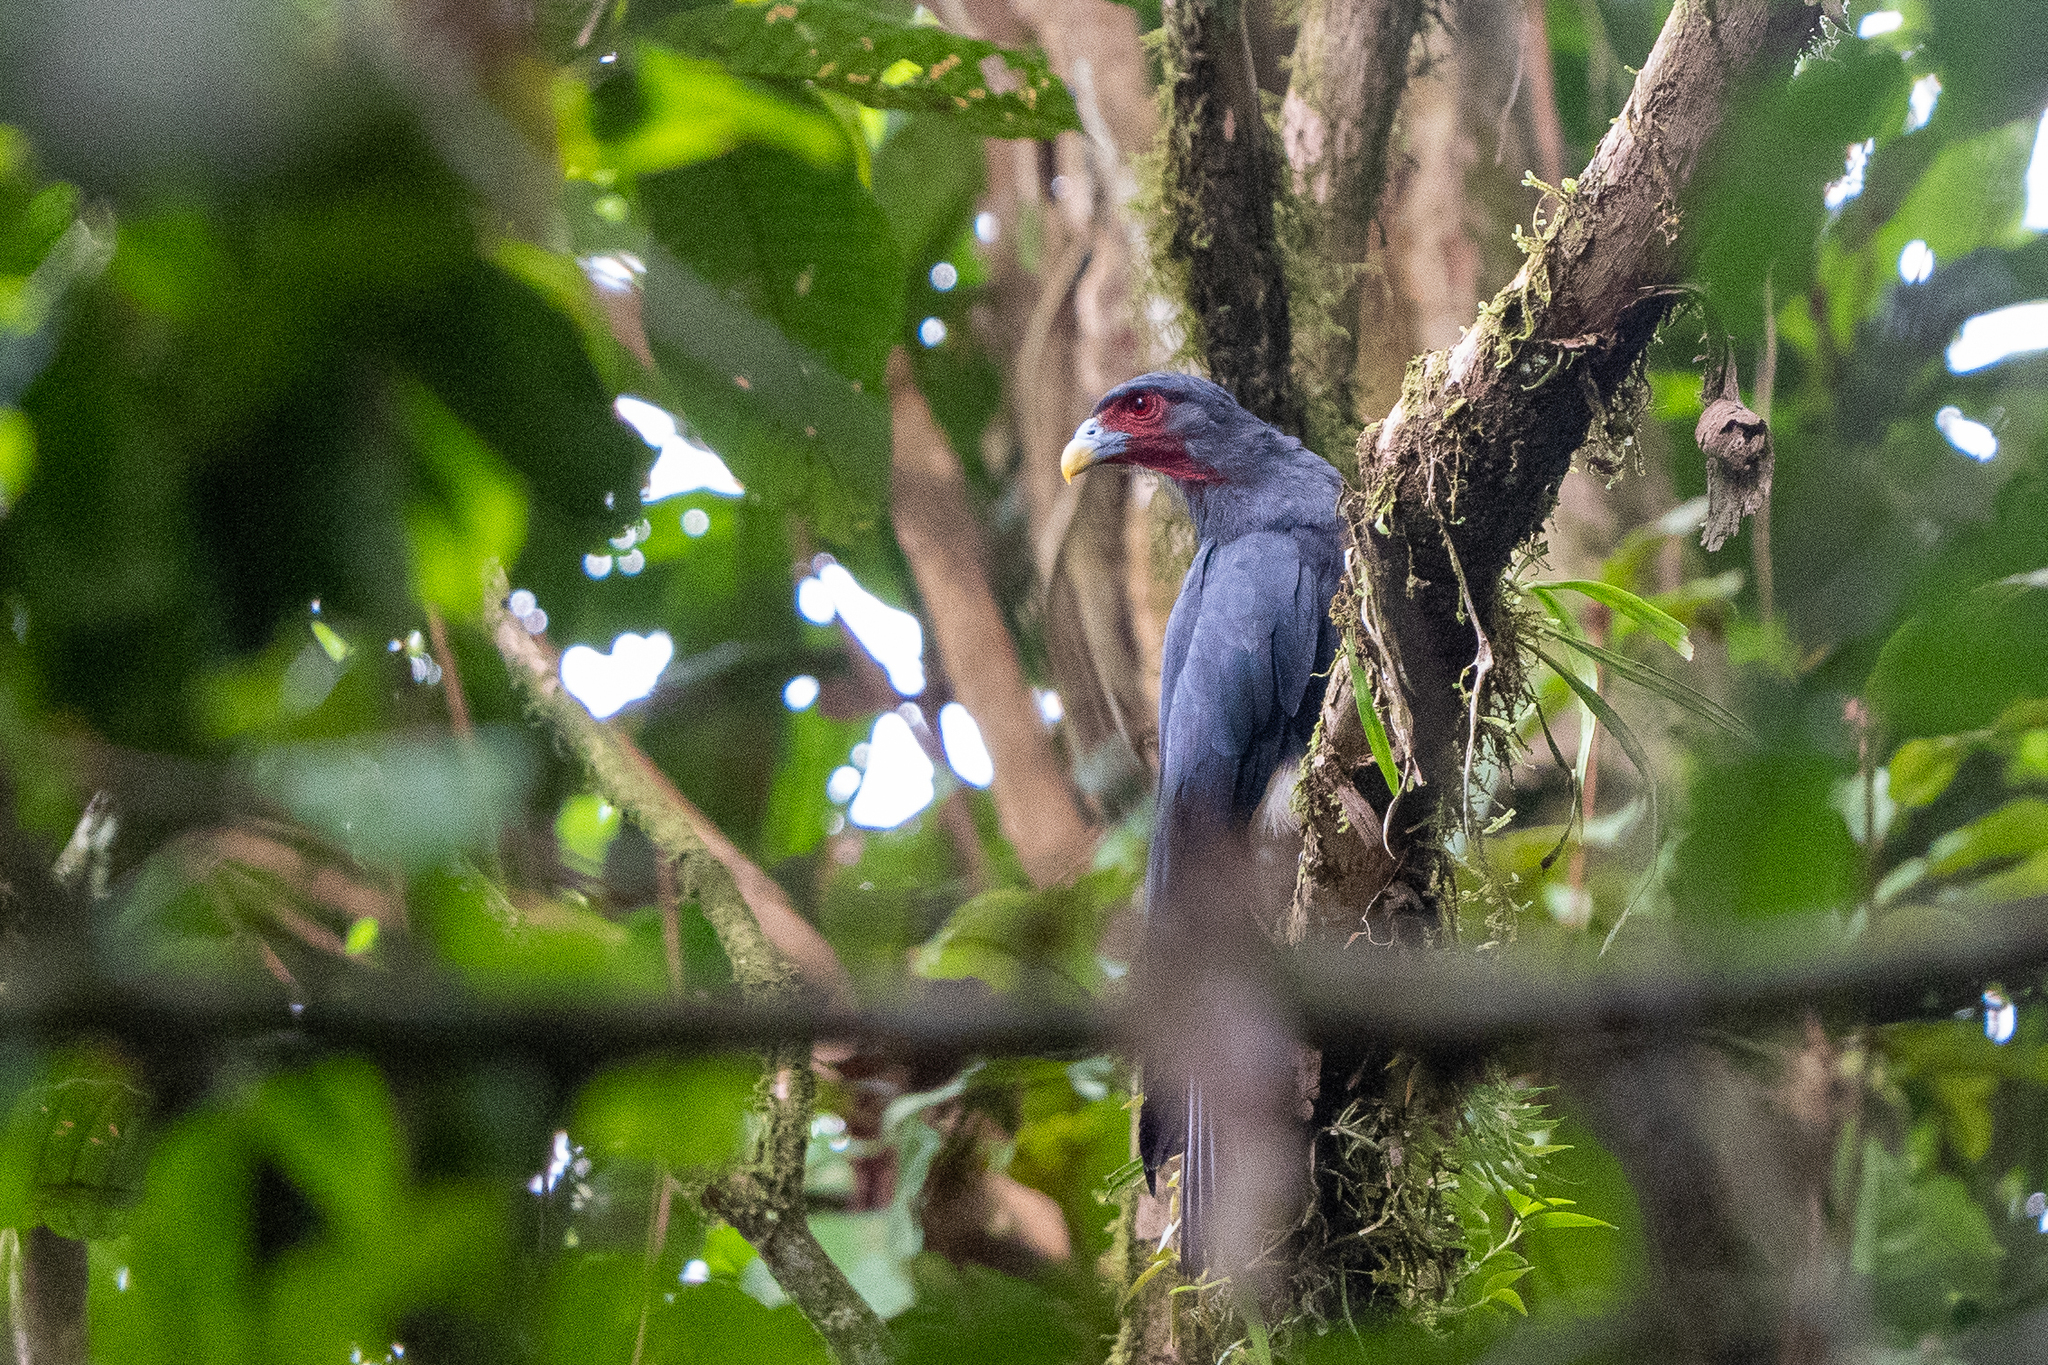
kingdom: Animalia
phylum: Chordata
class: Aves
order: Falconiformes
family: Falconidae
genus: Ibycter
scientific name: Ibycter americanus
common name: Red-throated caracara
